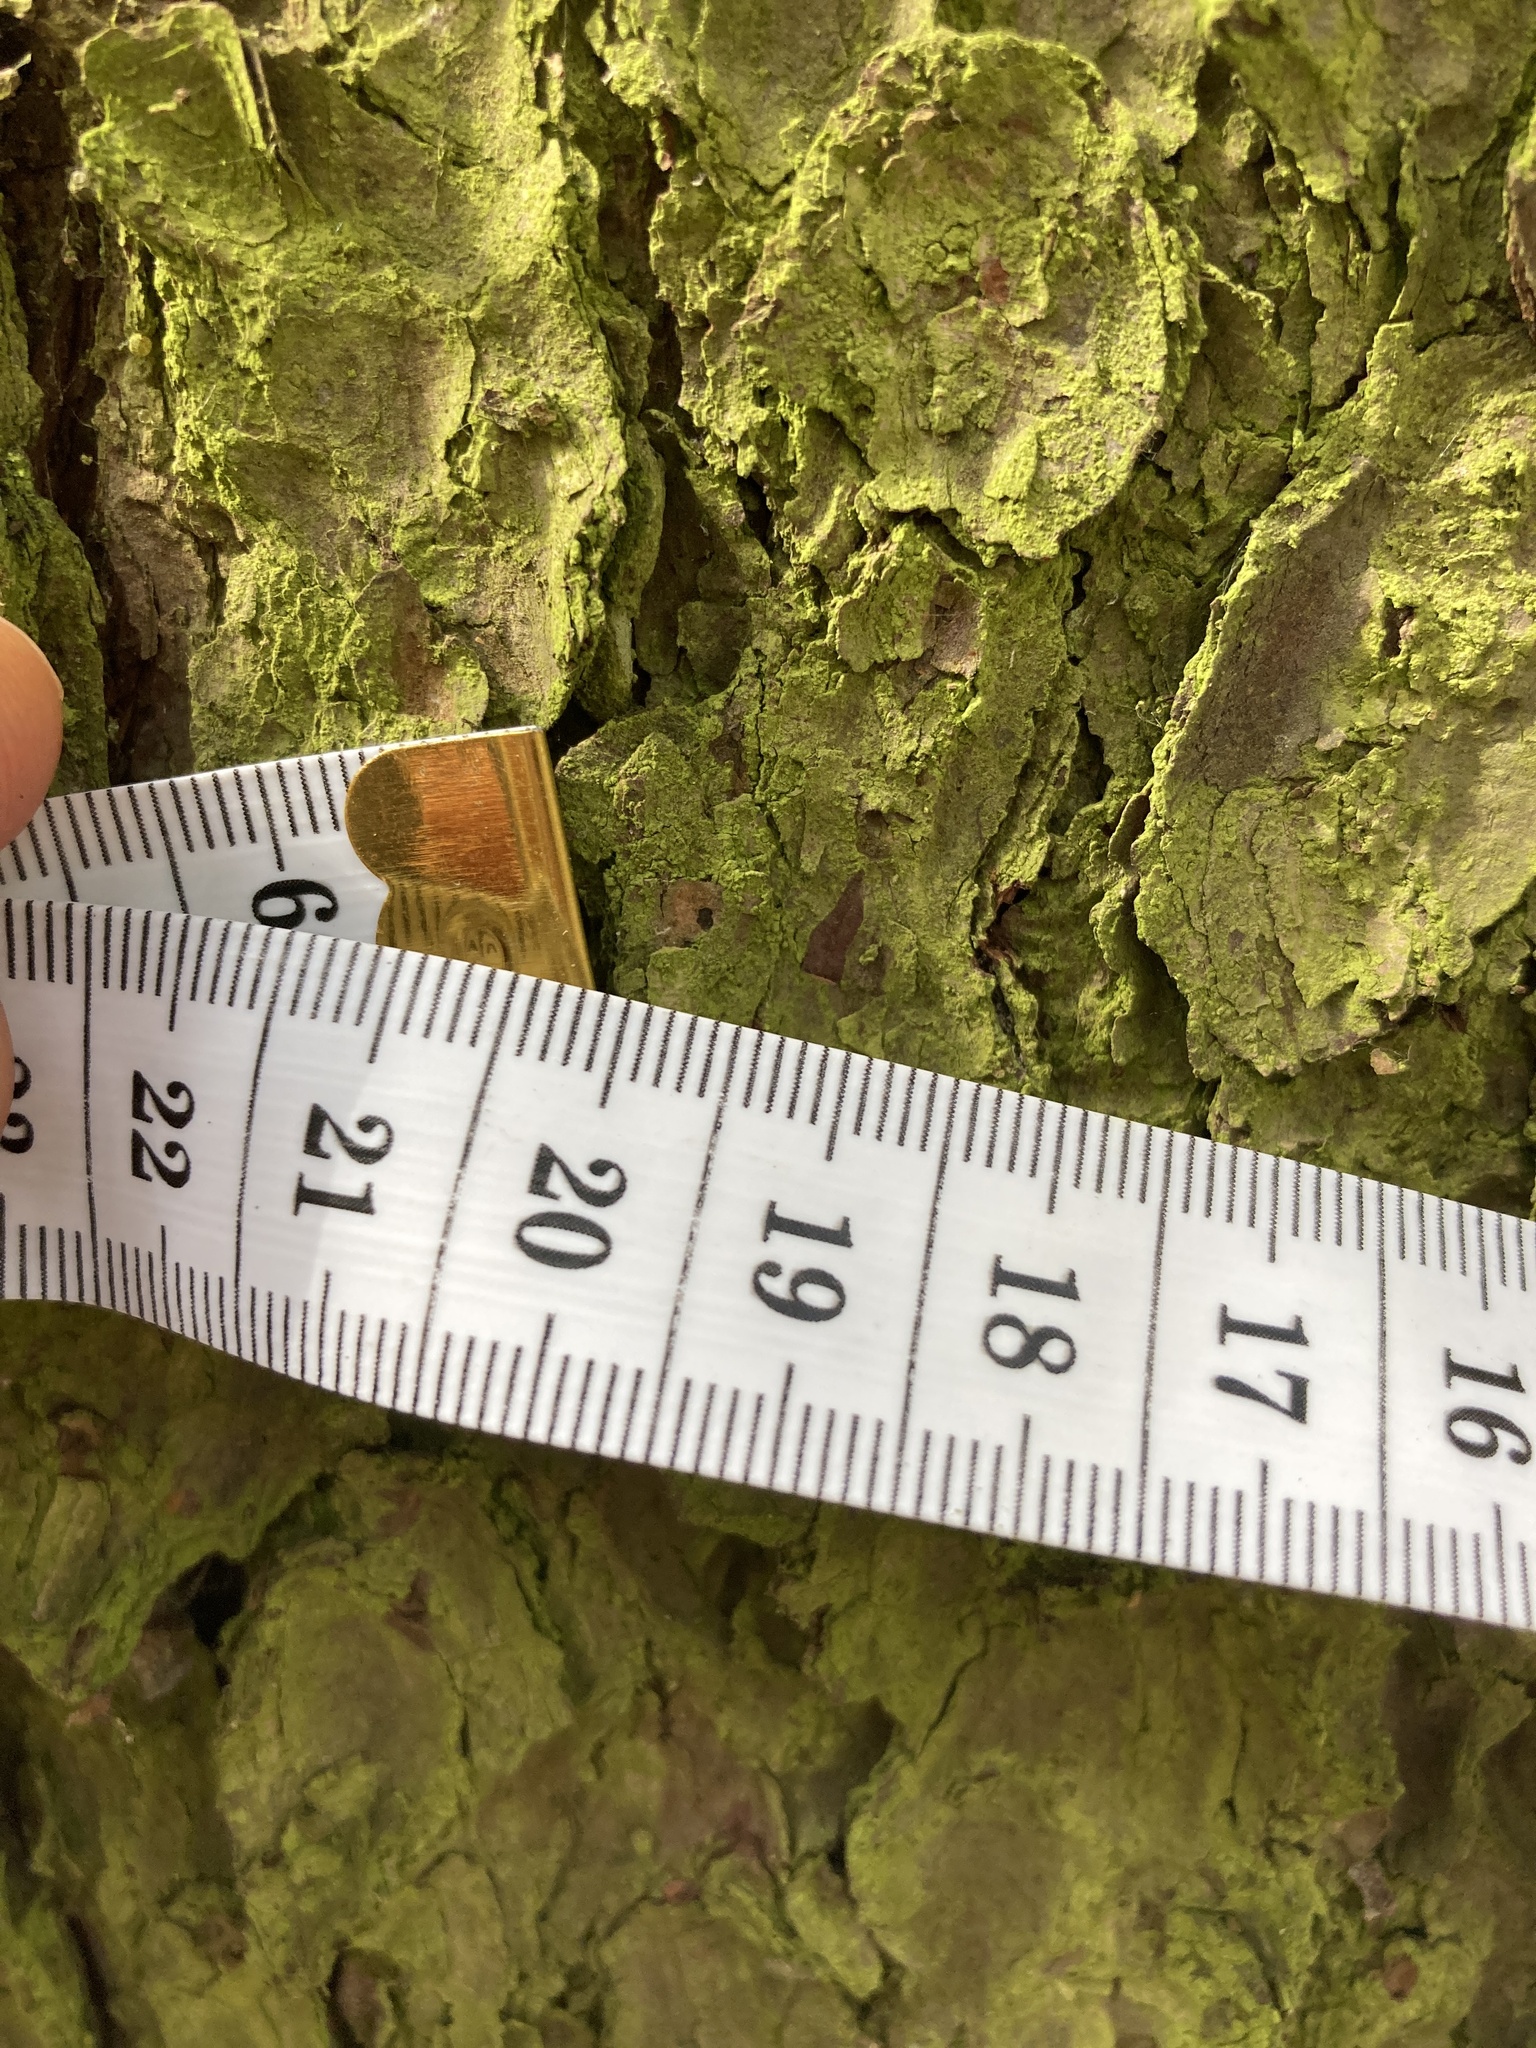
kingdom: Plantae
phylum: Tracheophyta
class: Pinopsida
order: Pinales
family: Pinaceae
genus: Picea
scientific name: Picea abies
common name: Norway spruce
